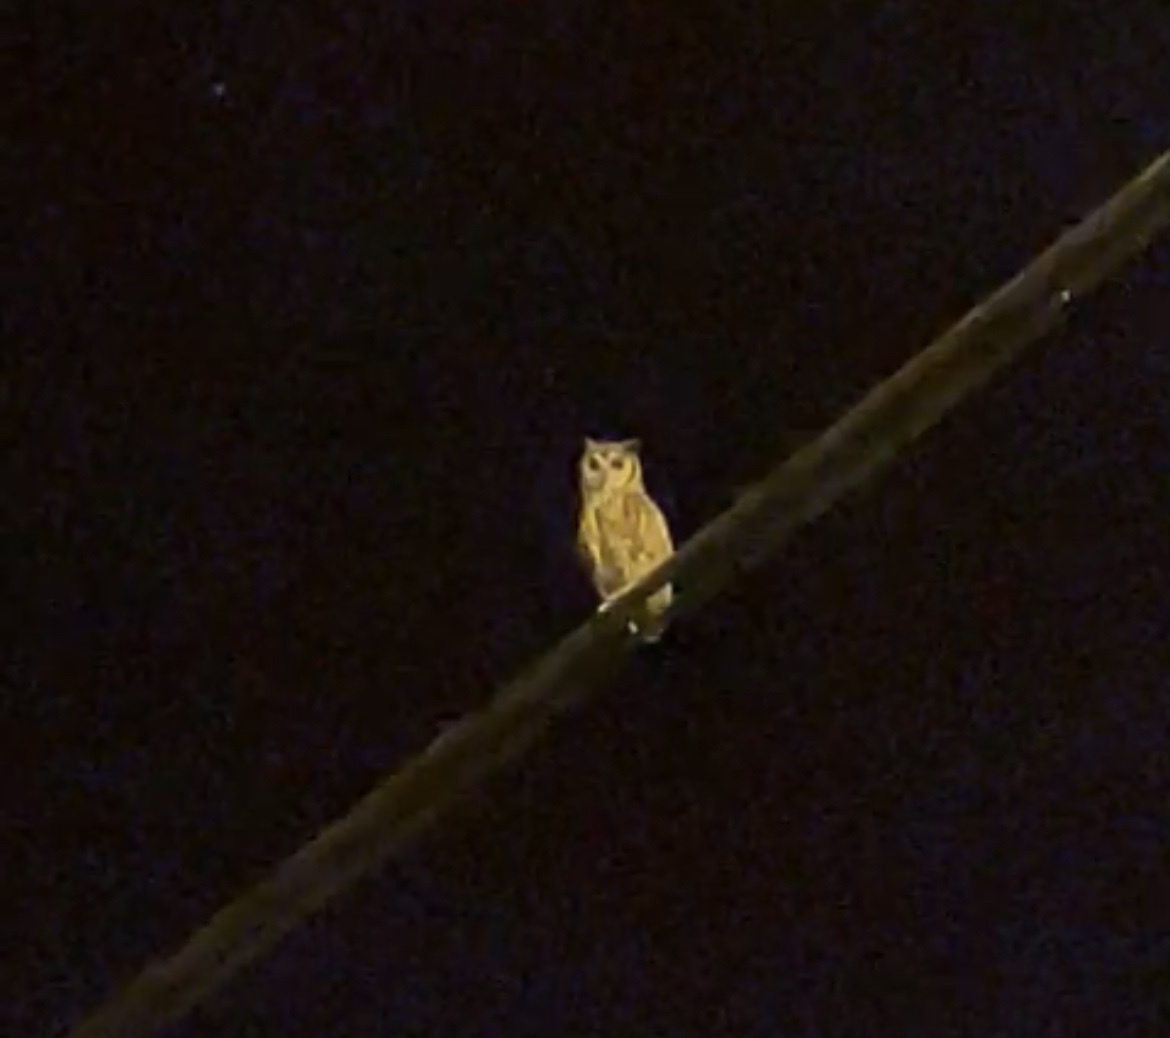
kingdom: Animalia
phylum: Chordata
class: Aves
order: Strigiformes
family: Strigidae
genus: Pseudoscops
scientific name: Pseudoscops clamator
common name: Striped owl
